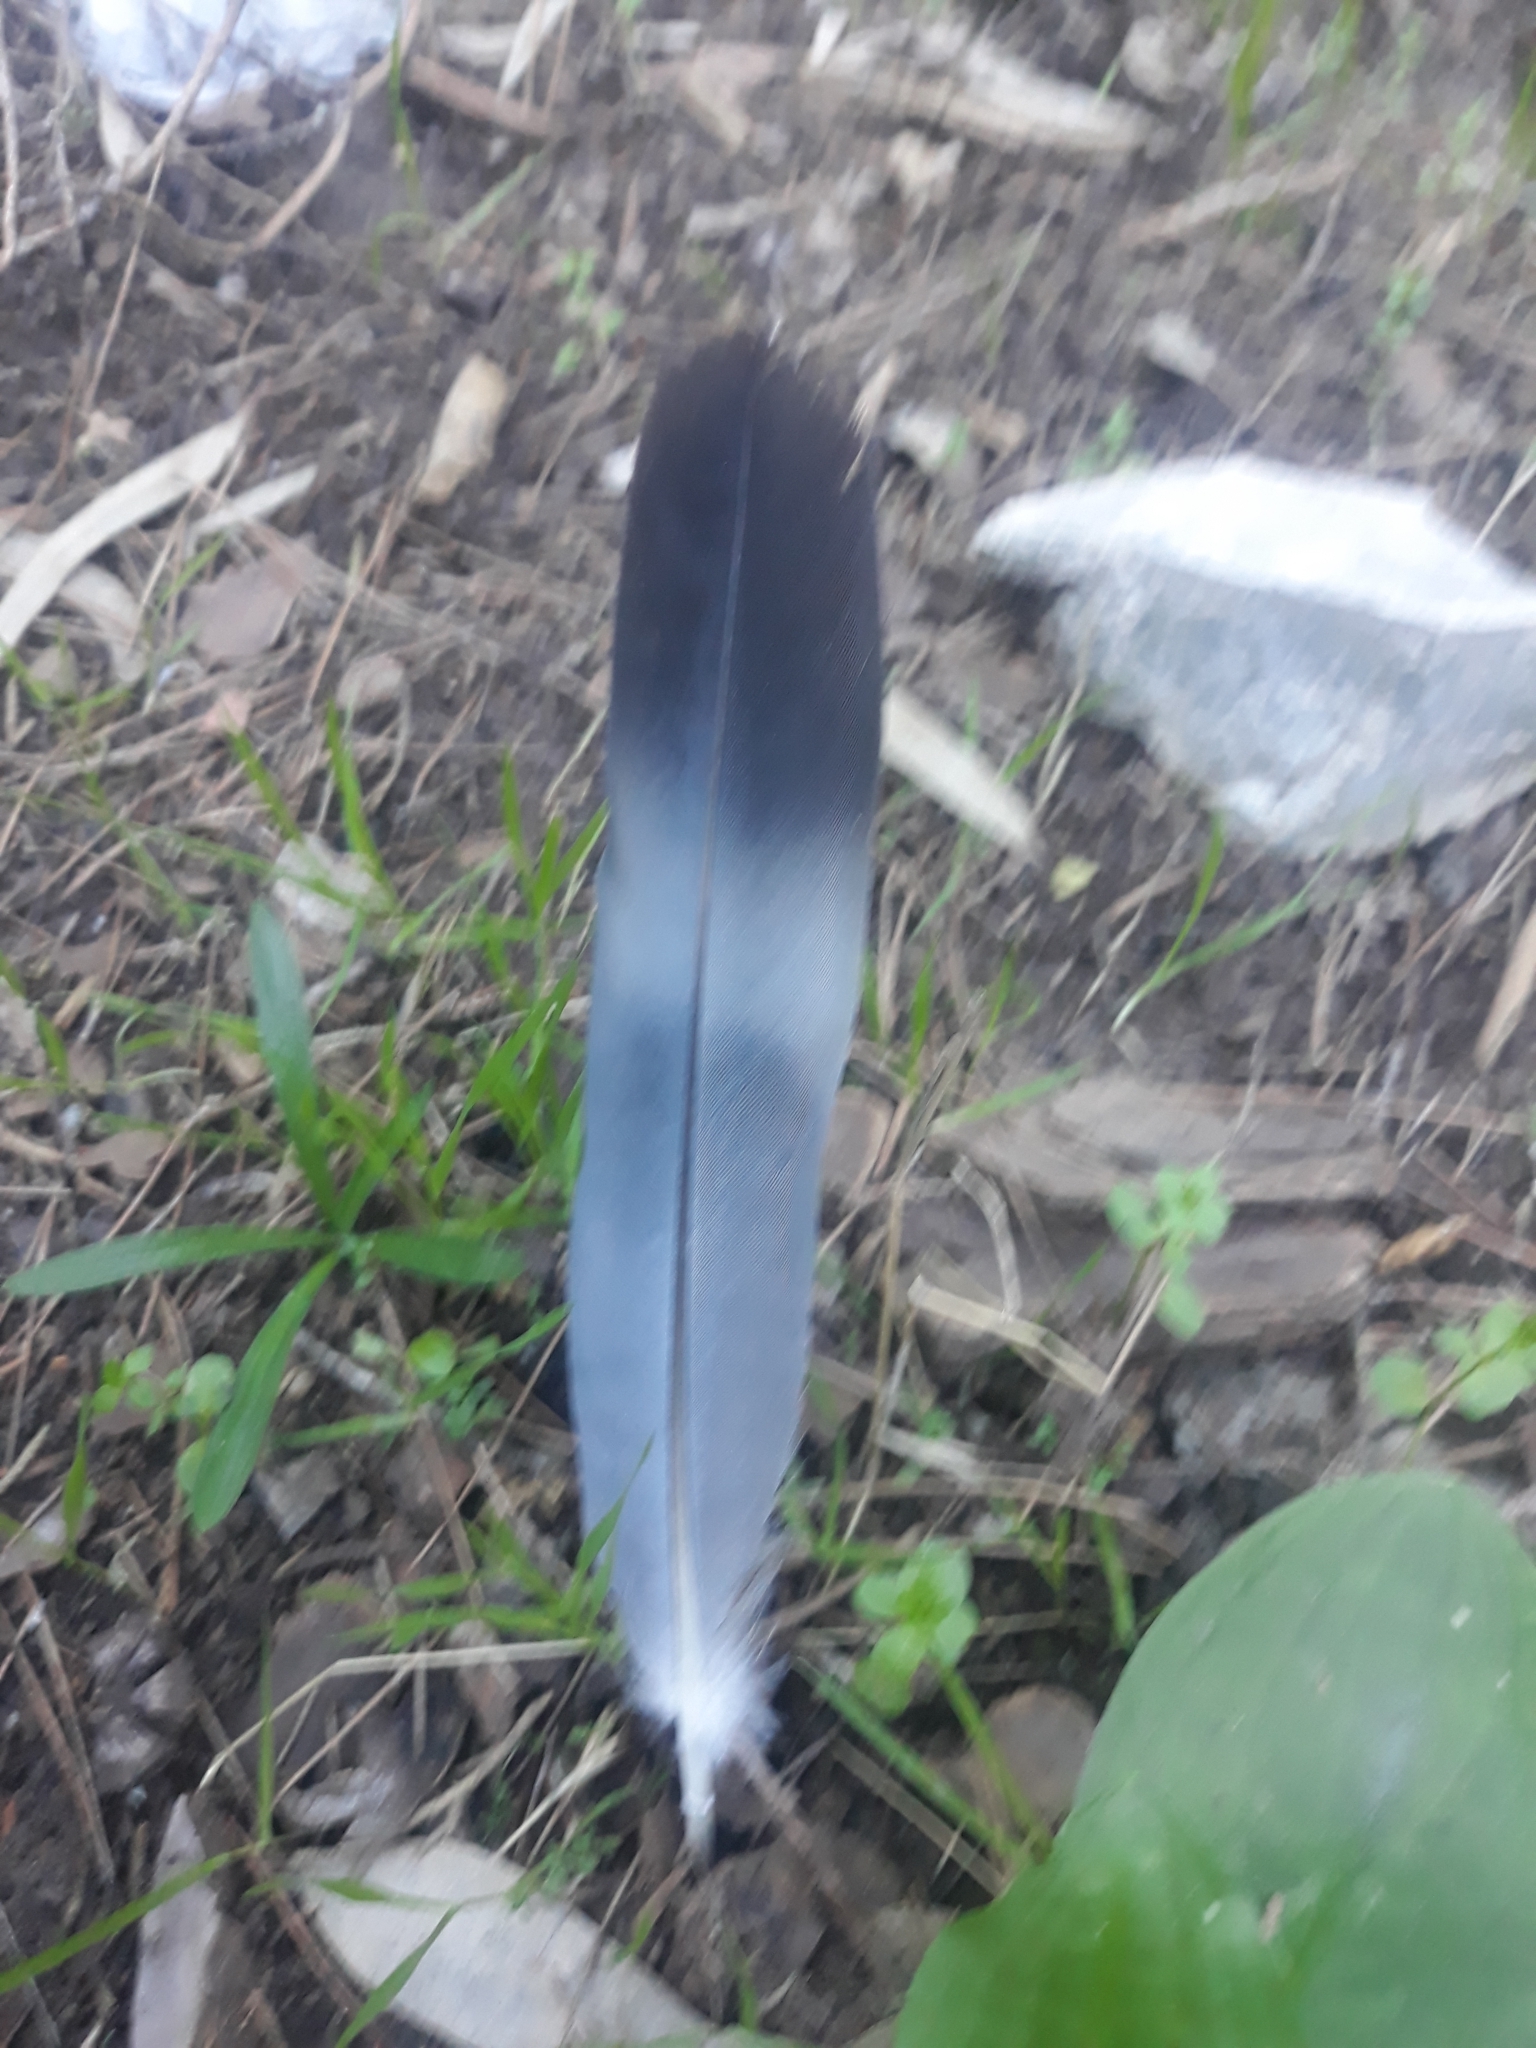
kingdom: Animalia
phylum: Chordata
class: Aves
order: Columbiformes
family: Columbidae
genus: Columba
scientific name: Columba palumbus
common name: Common wood pigeon
